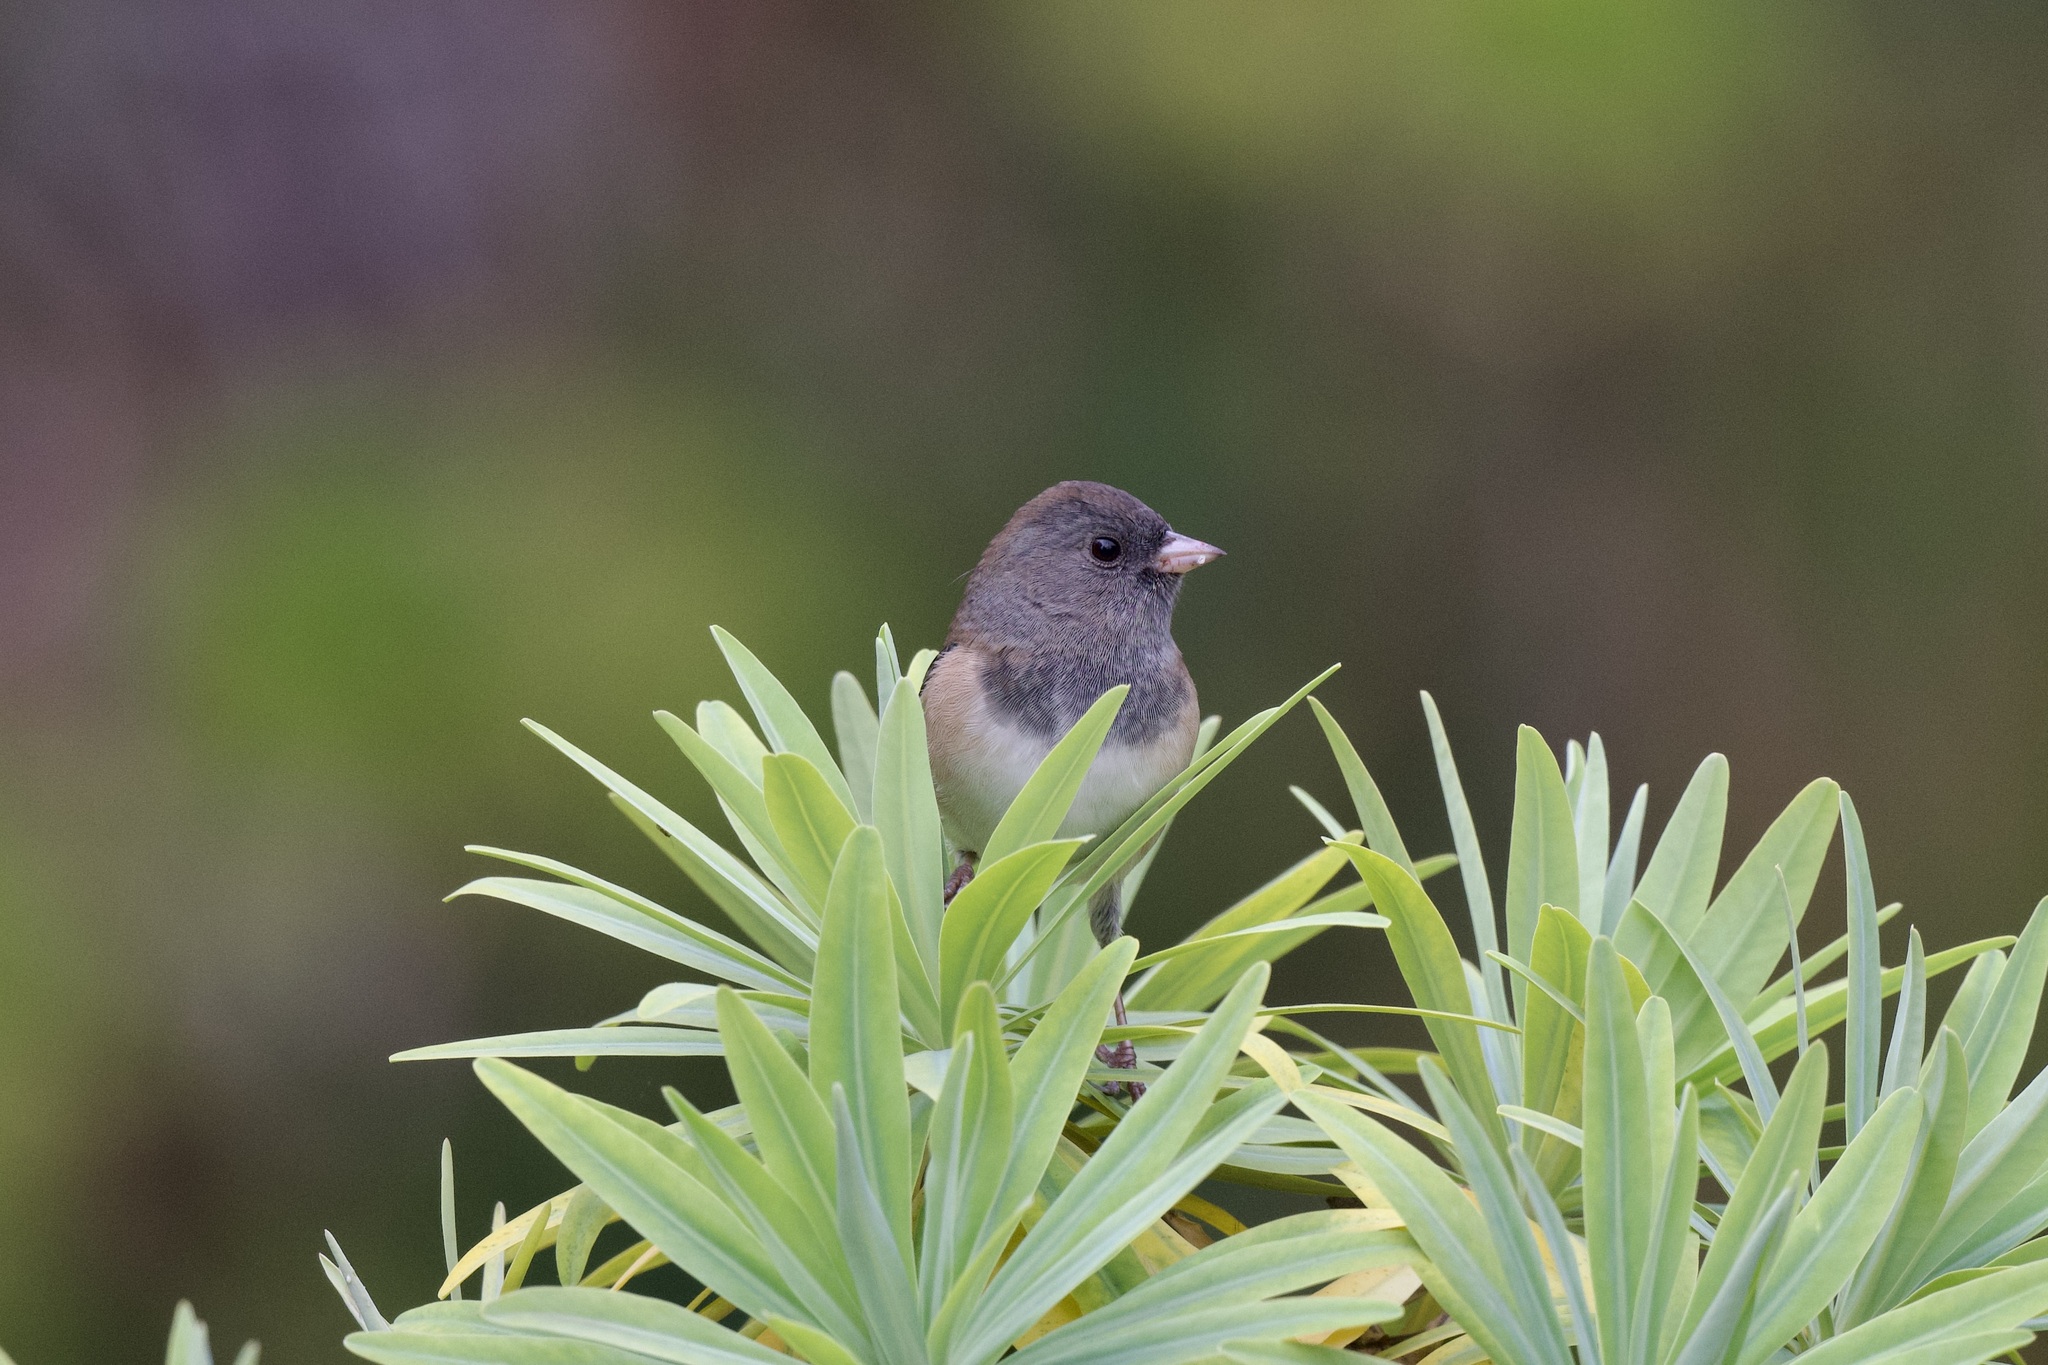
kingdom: Animalia
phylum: Chordata
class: Aves
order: Passeriformes
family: Passerellidae
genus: Junco
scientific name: Junco hyemalis
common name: Dark-eyed junco
